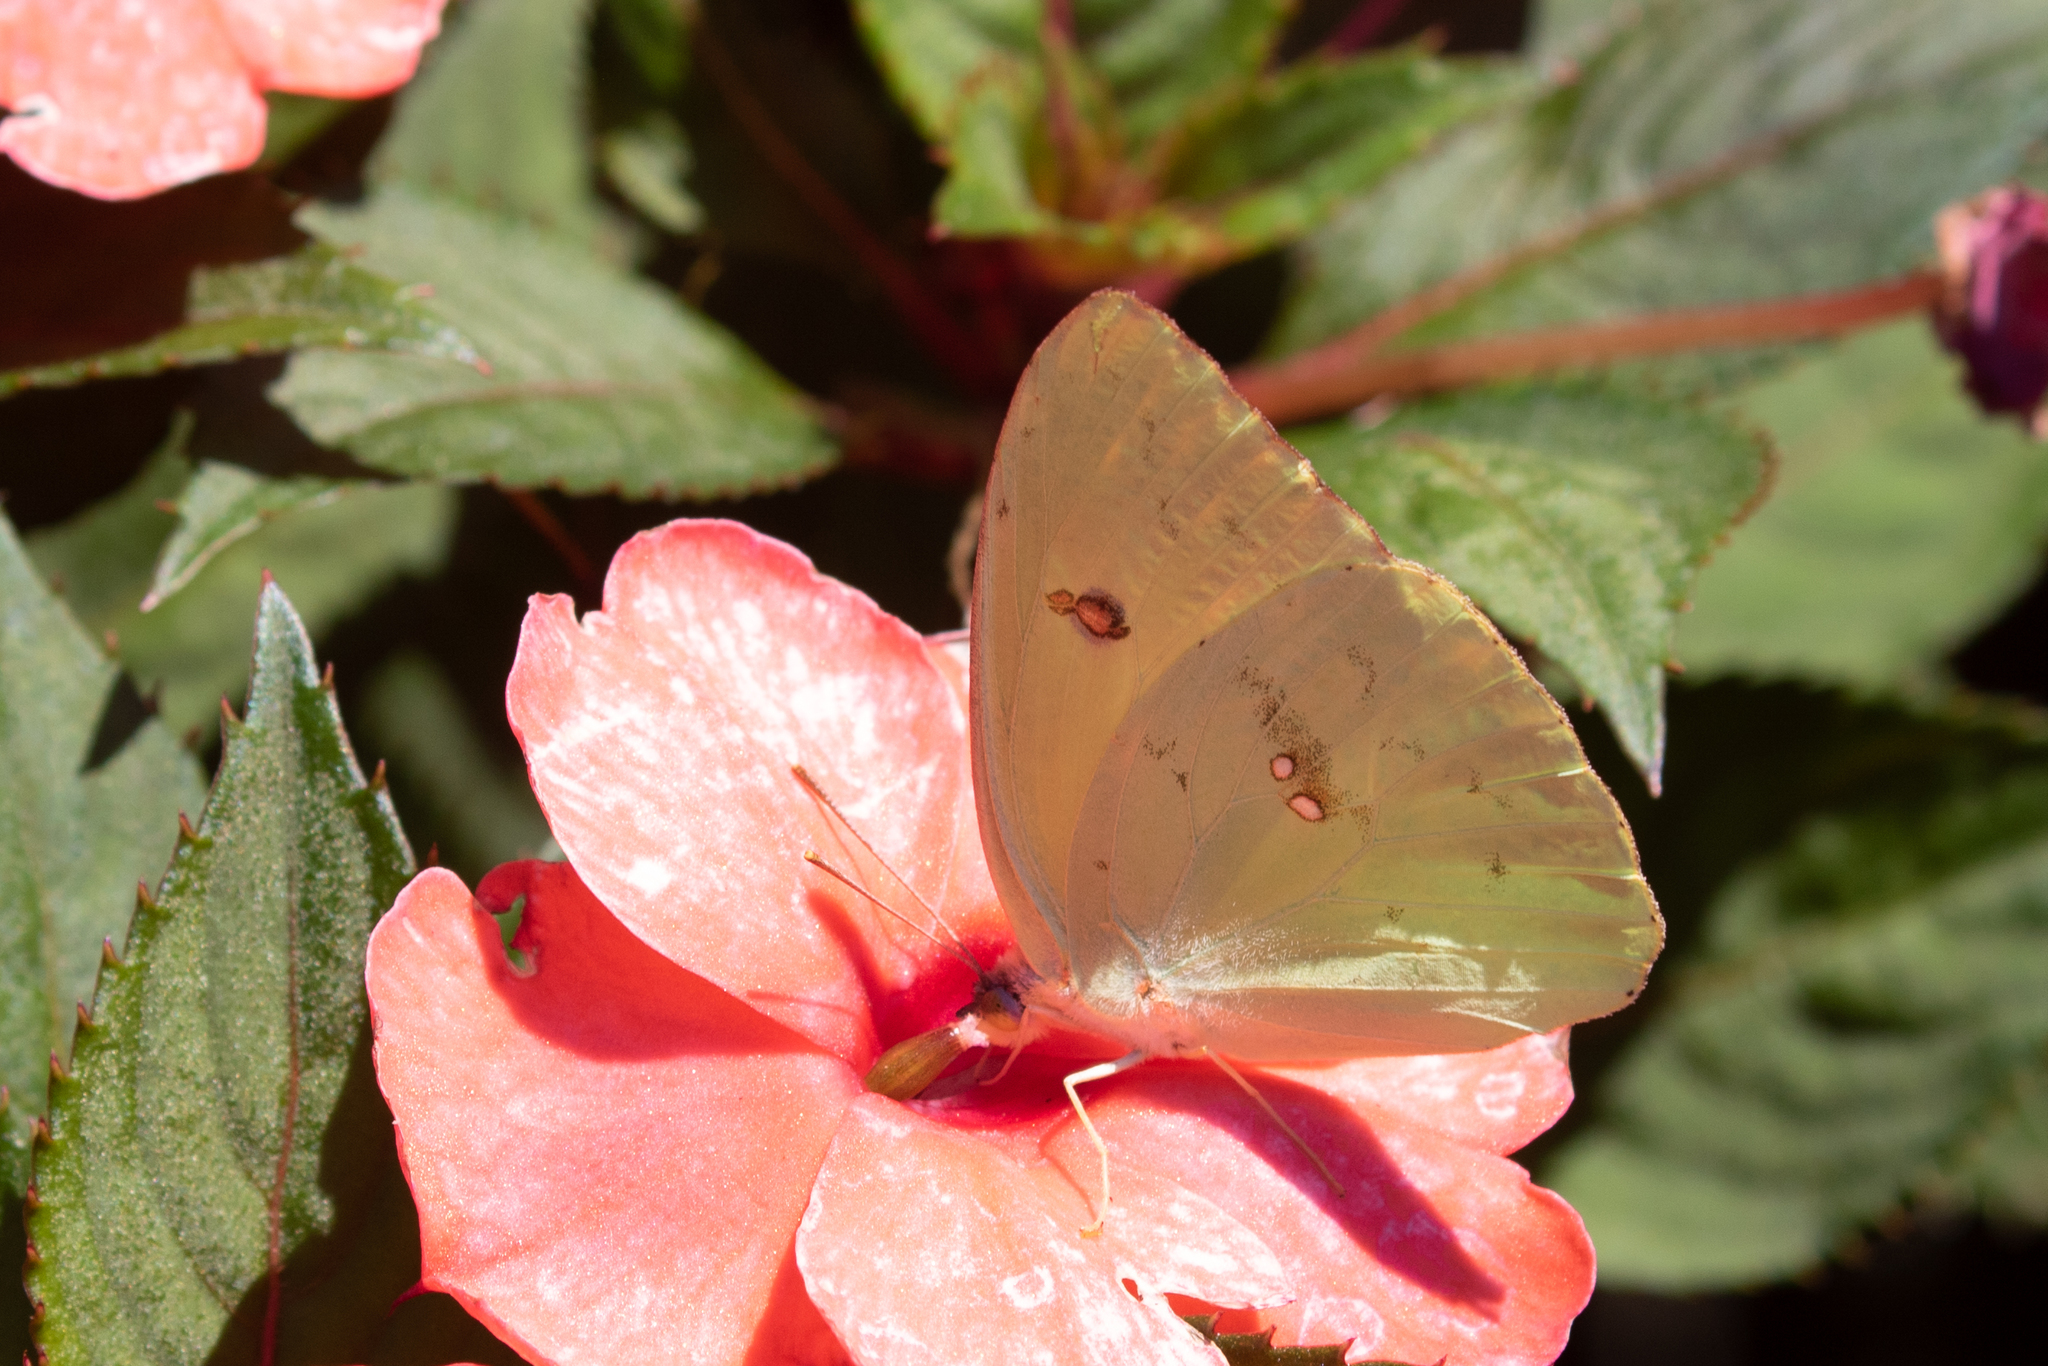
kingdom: Animalia
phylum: Arthropoda
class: Insecta
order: Lepidoptera
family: Pieridae
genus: Phoebis
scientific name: Phoebis sennae
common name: Cloudless sulphur
